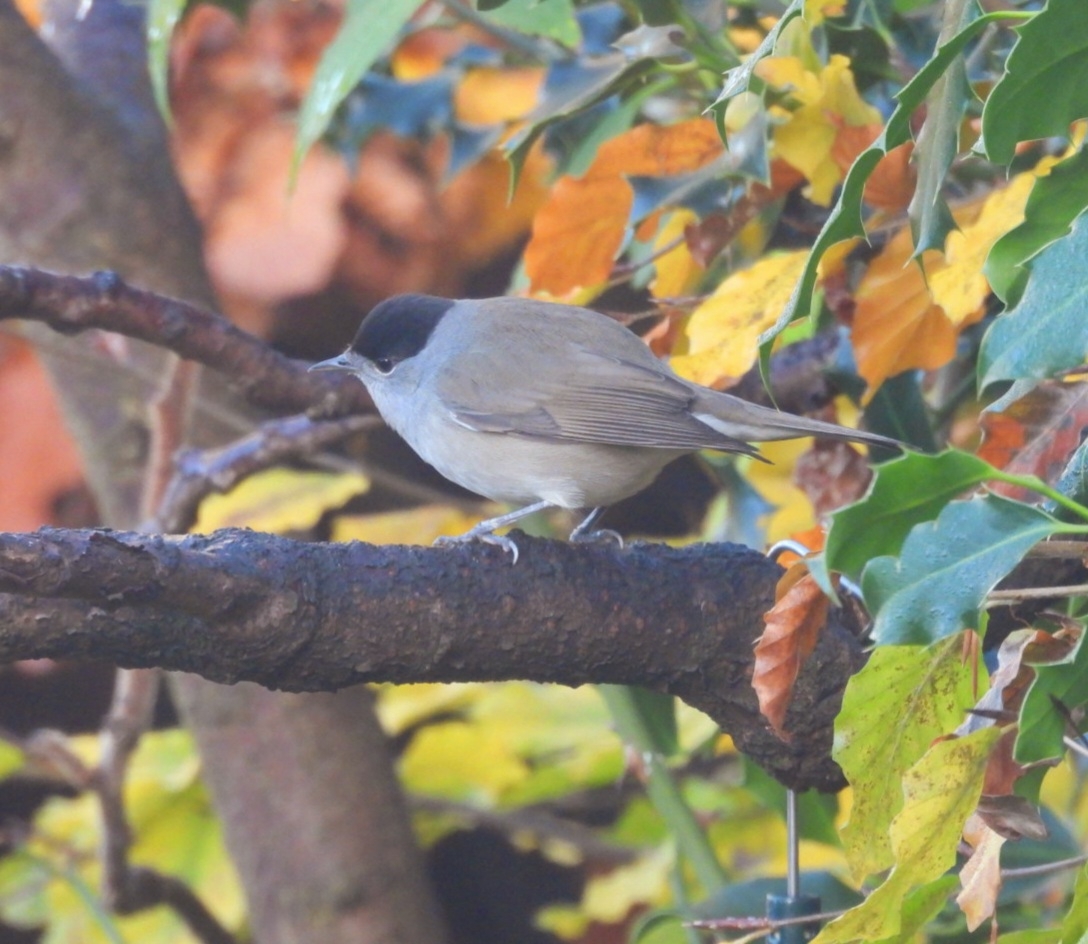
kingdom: Animalia
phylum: Chordata
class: Aves
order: Passeriformes
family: Sylviidae
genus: Sylvia
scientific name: Sylvia atricapilla
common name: Eurasian blackcap
